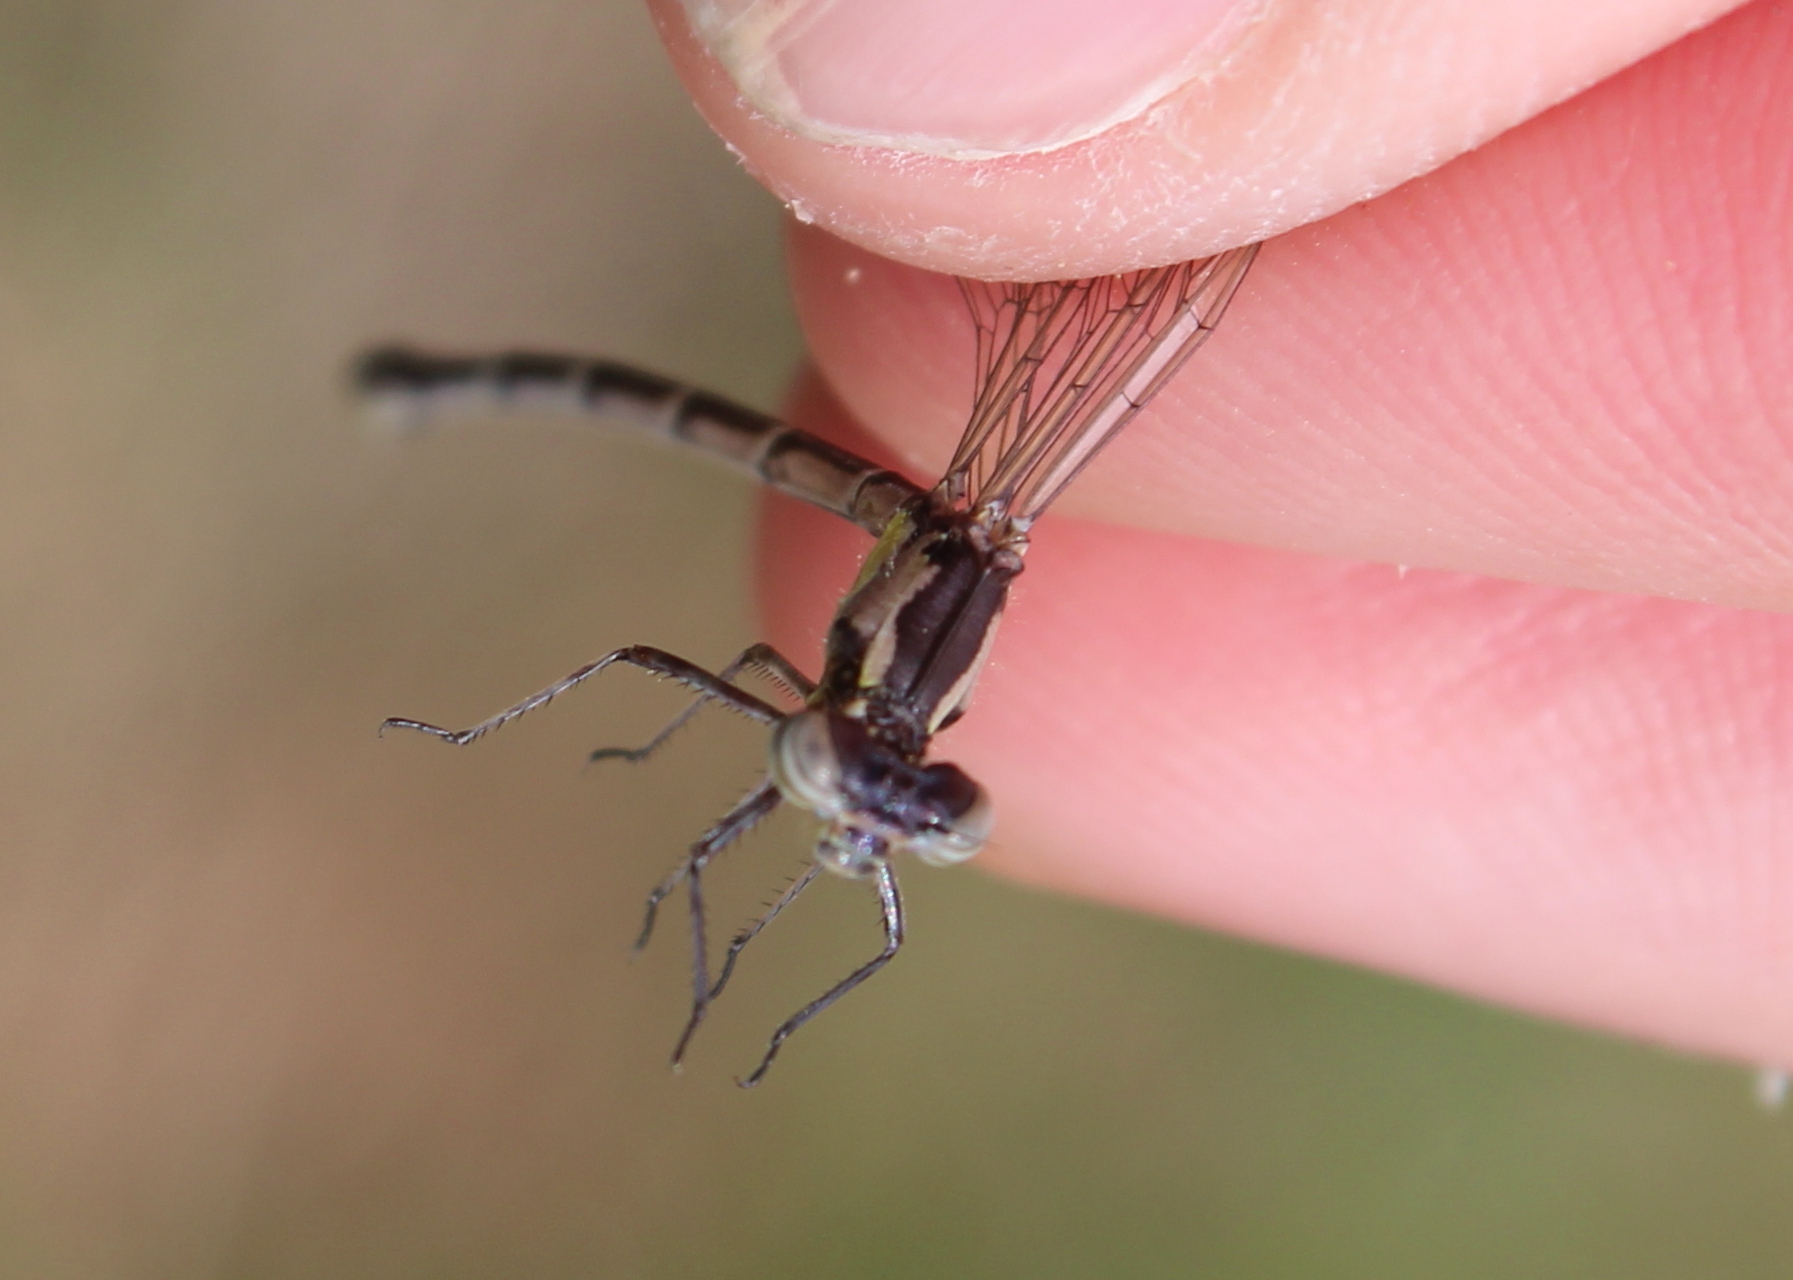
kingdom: Animalia
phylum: Arthropoda
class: Insecta
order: Odonata
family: Coenagrionidae
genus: Chromagrion
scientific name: Chromagrion conditum
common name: Aurora damsel
